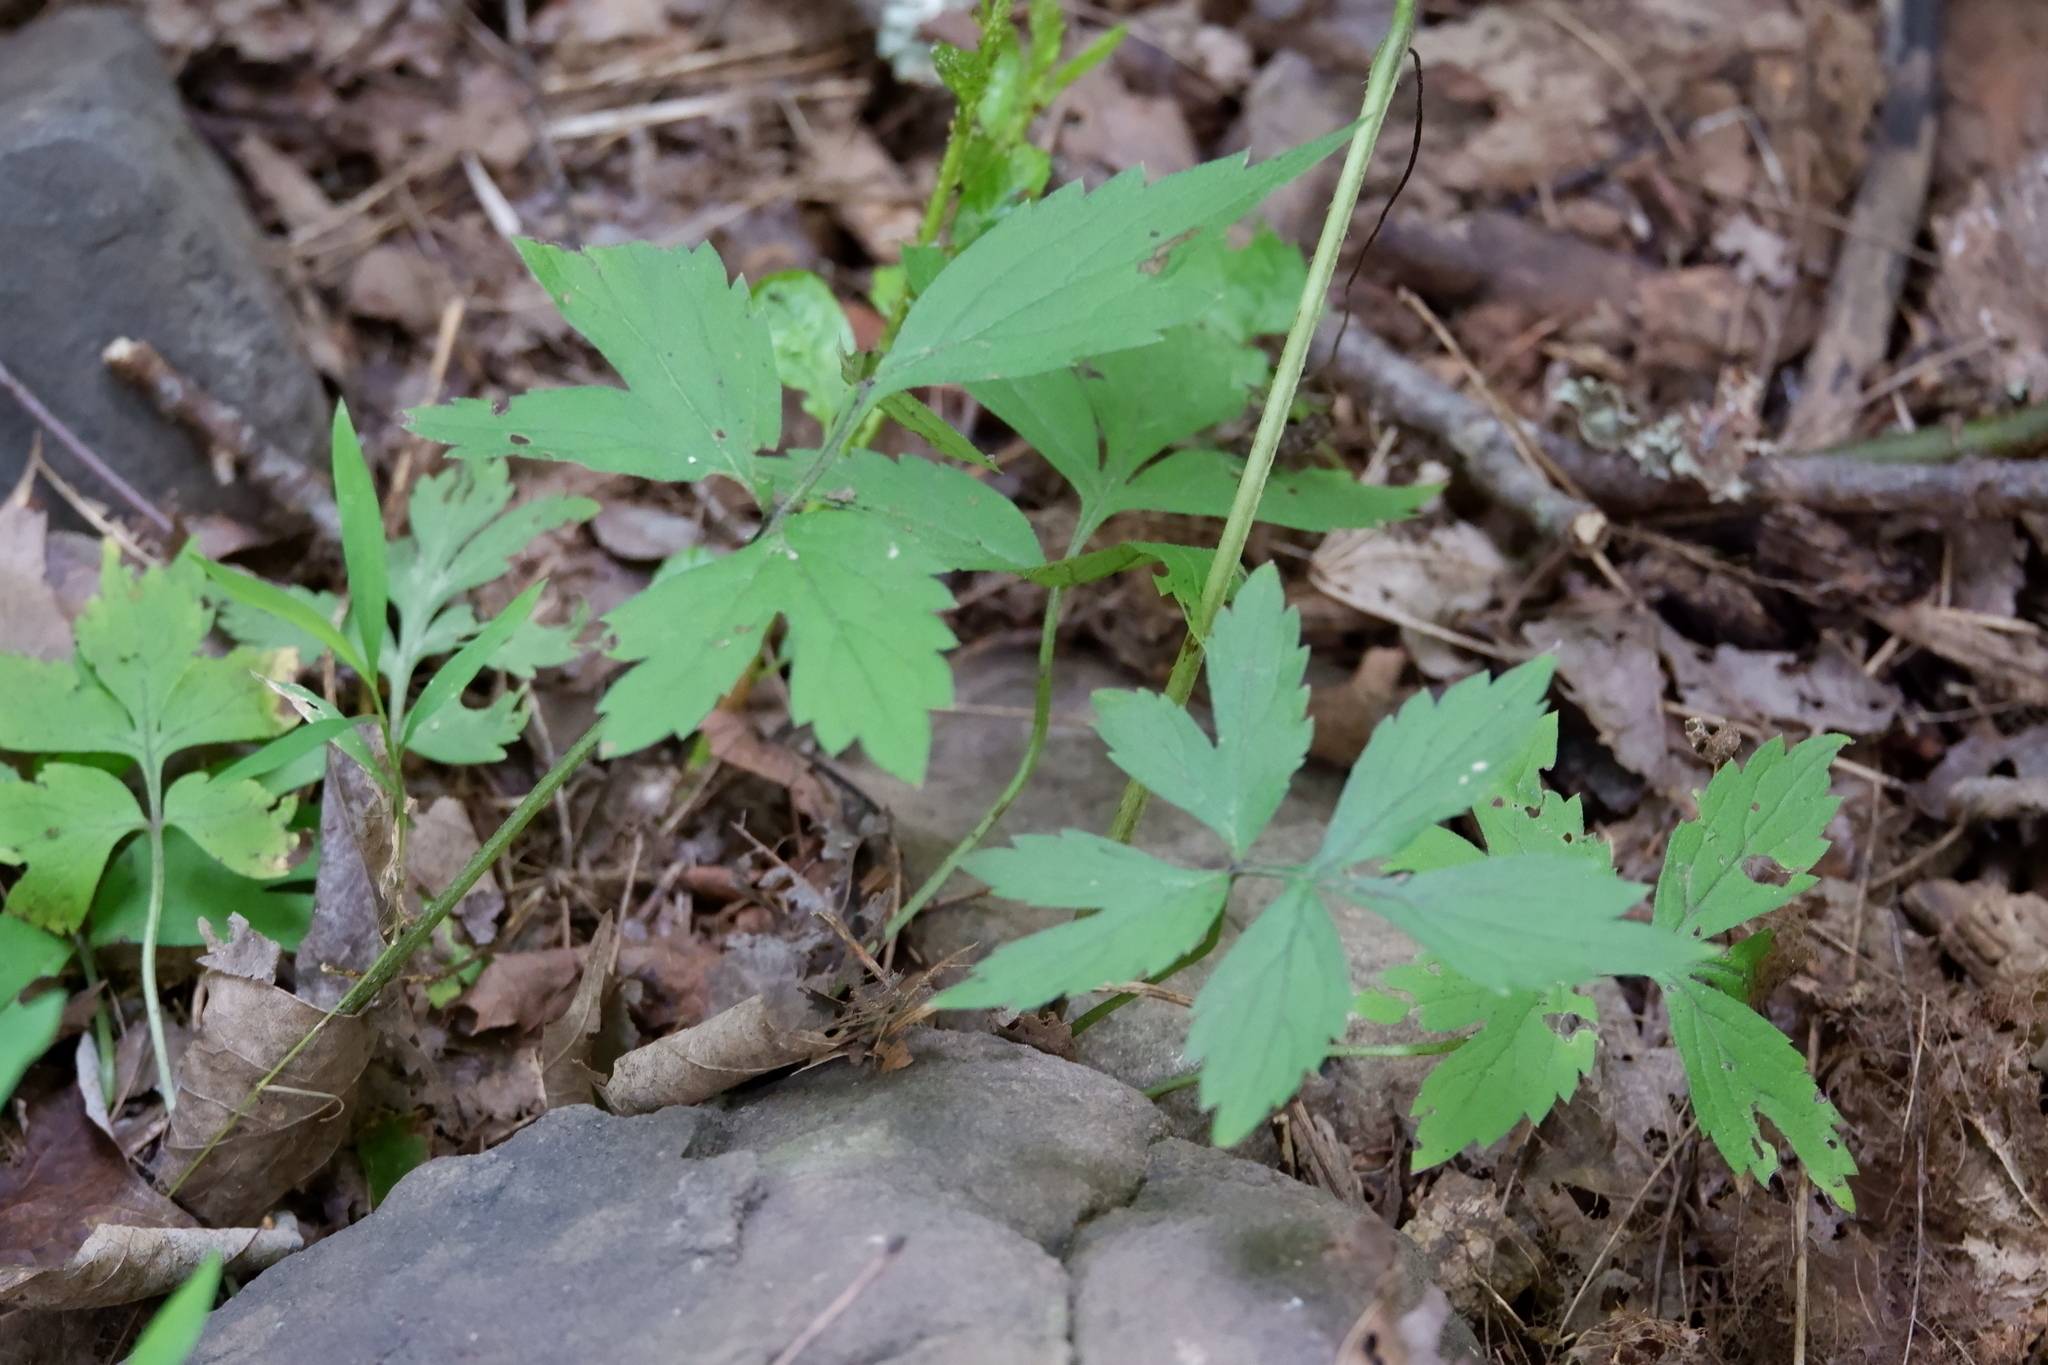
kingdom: Plantae
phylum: Tracheophyta
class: Magnoliopsida
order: Boraginales
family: Hydrophyllaceae
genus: Hydrophyllum
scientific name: Hydrophyllum virginianum
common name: Virginia waterleaf
